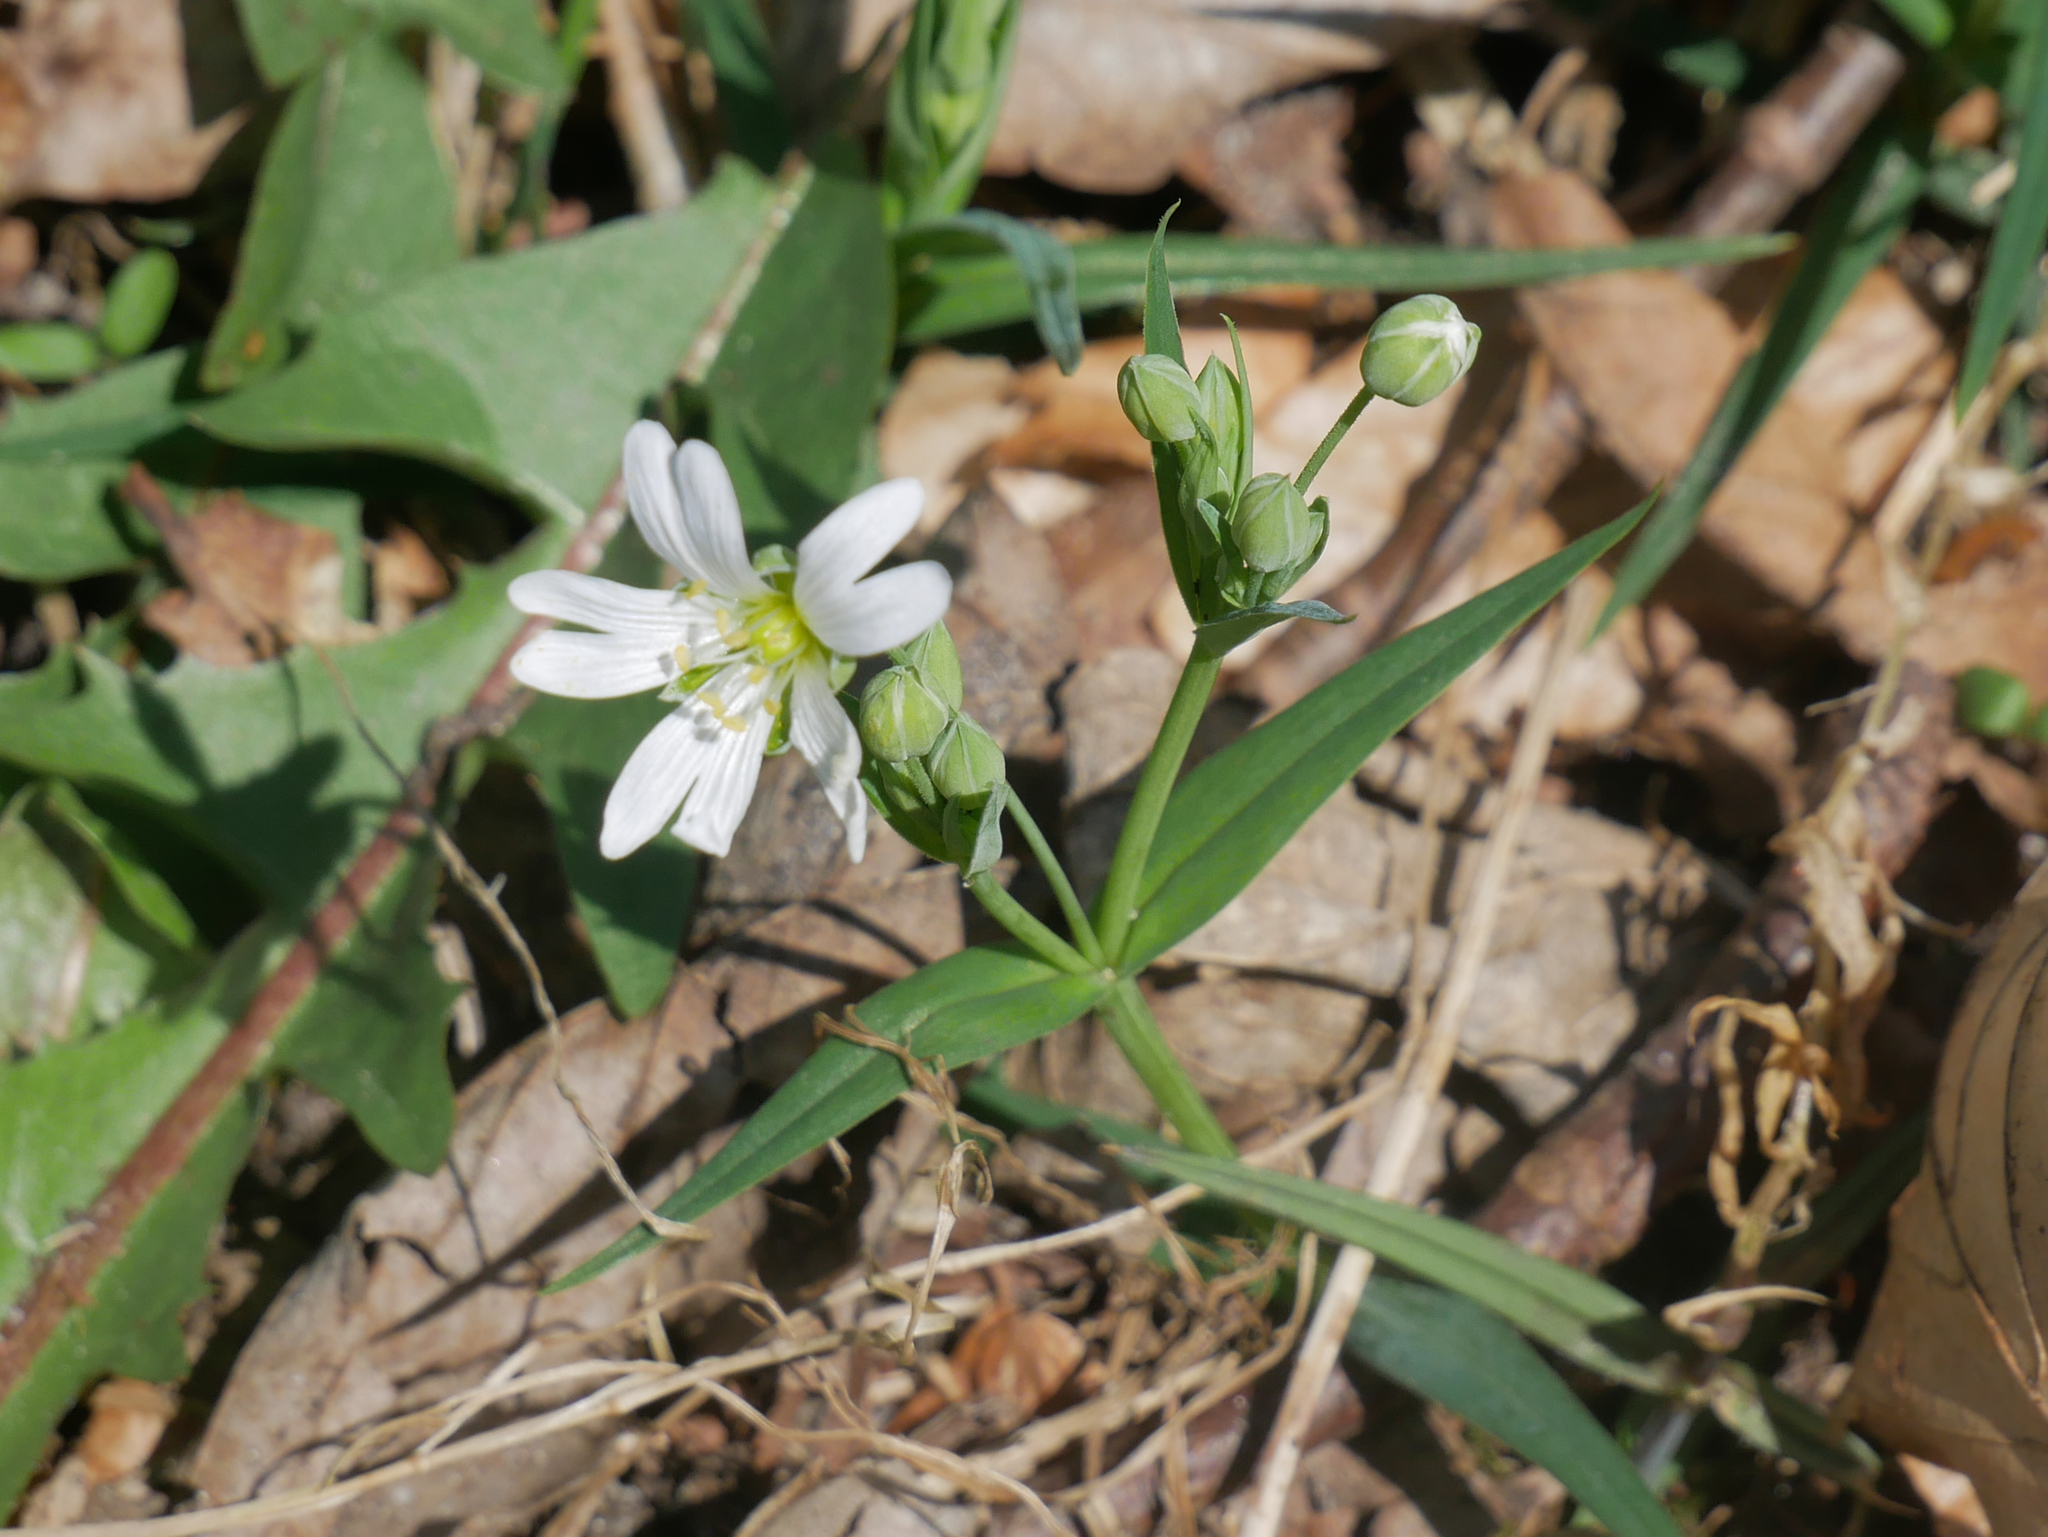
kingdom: Plantae
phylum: Tracheophyta
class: Magnoliopsida
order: Caryophyllales
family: Caryophyllaceae
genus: Rabelera
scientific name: Rabelera holostea
